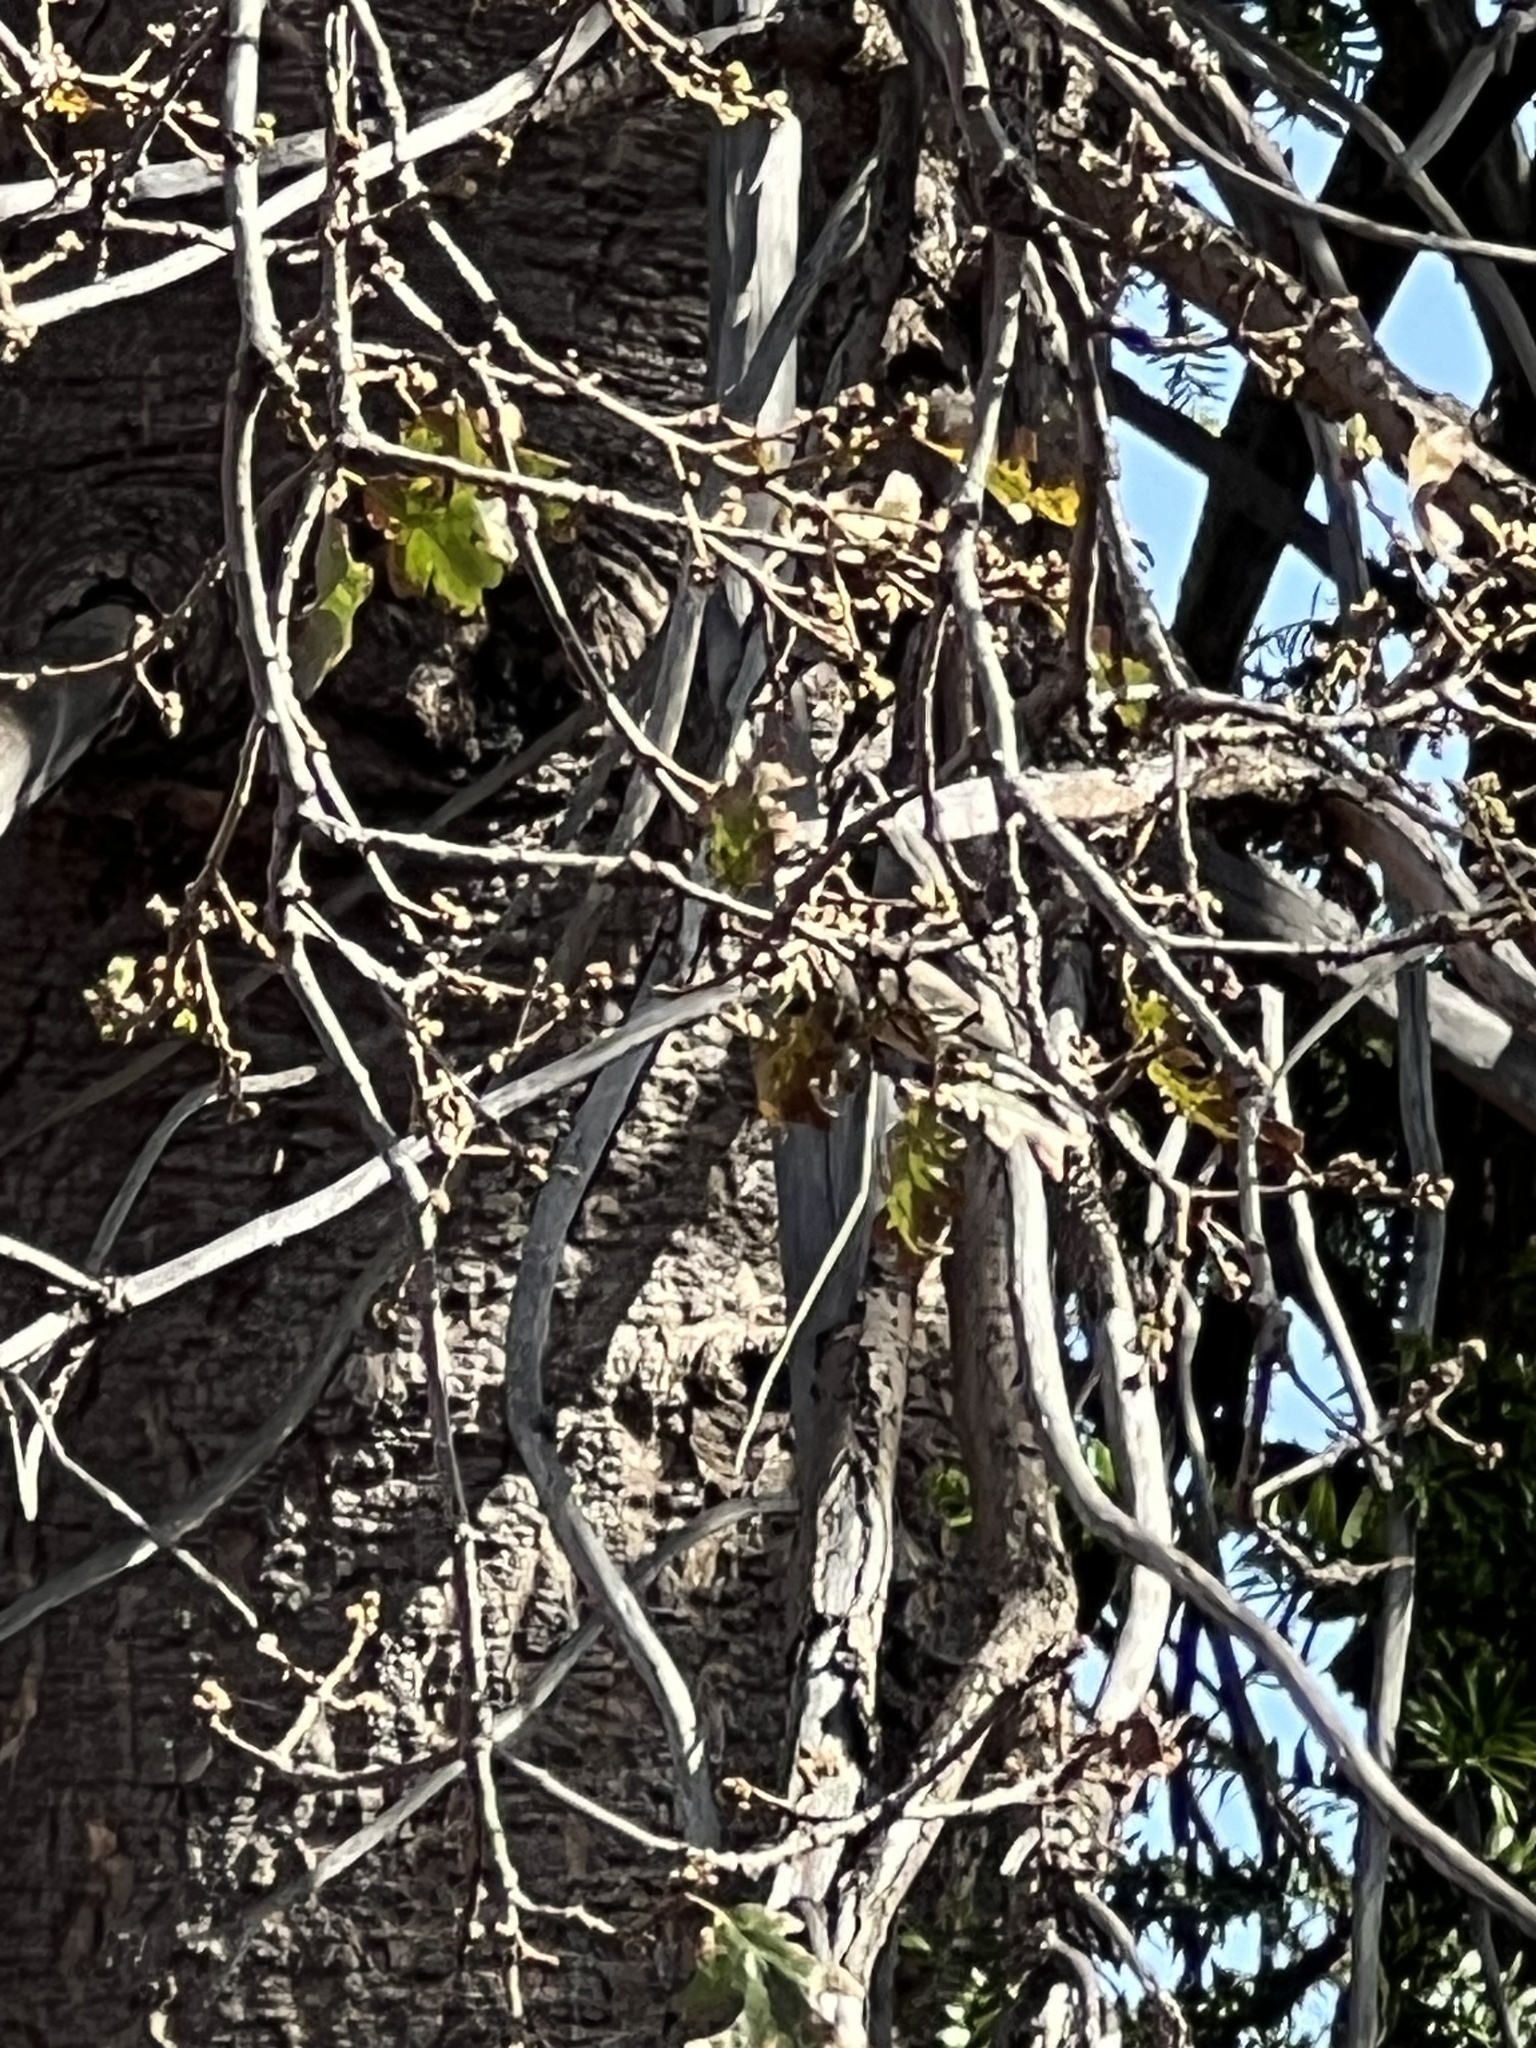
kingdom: Animalia
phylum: Chordata
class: Aves
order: Passeriformes
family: Parulidae
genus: Setophaga
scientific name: Setophaga coronata
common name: Myrtle warbler
